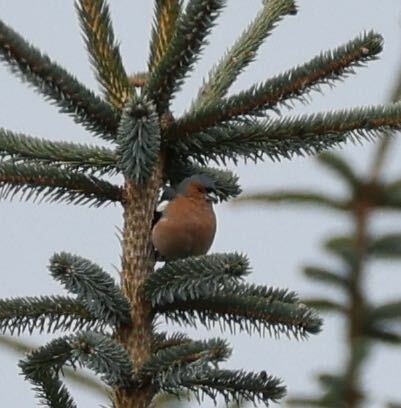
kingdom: Animalia
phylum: Chordata
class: Aves
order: Passeriformes
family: Fringillidae
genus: Fringilla
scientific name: Fringilla coelebs
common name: Common chaffinch
